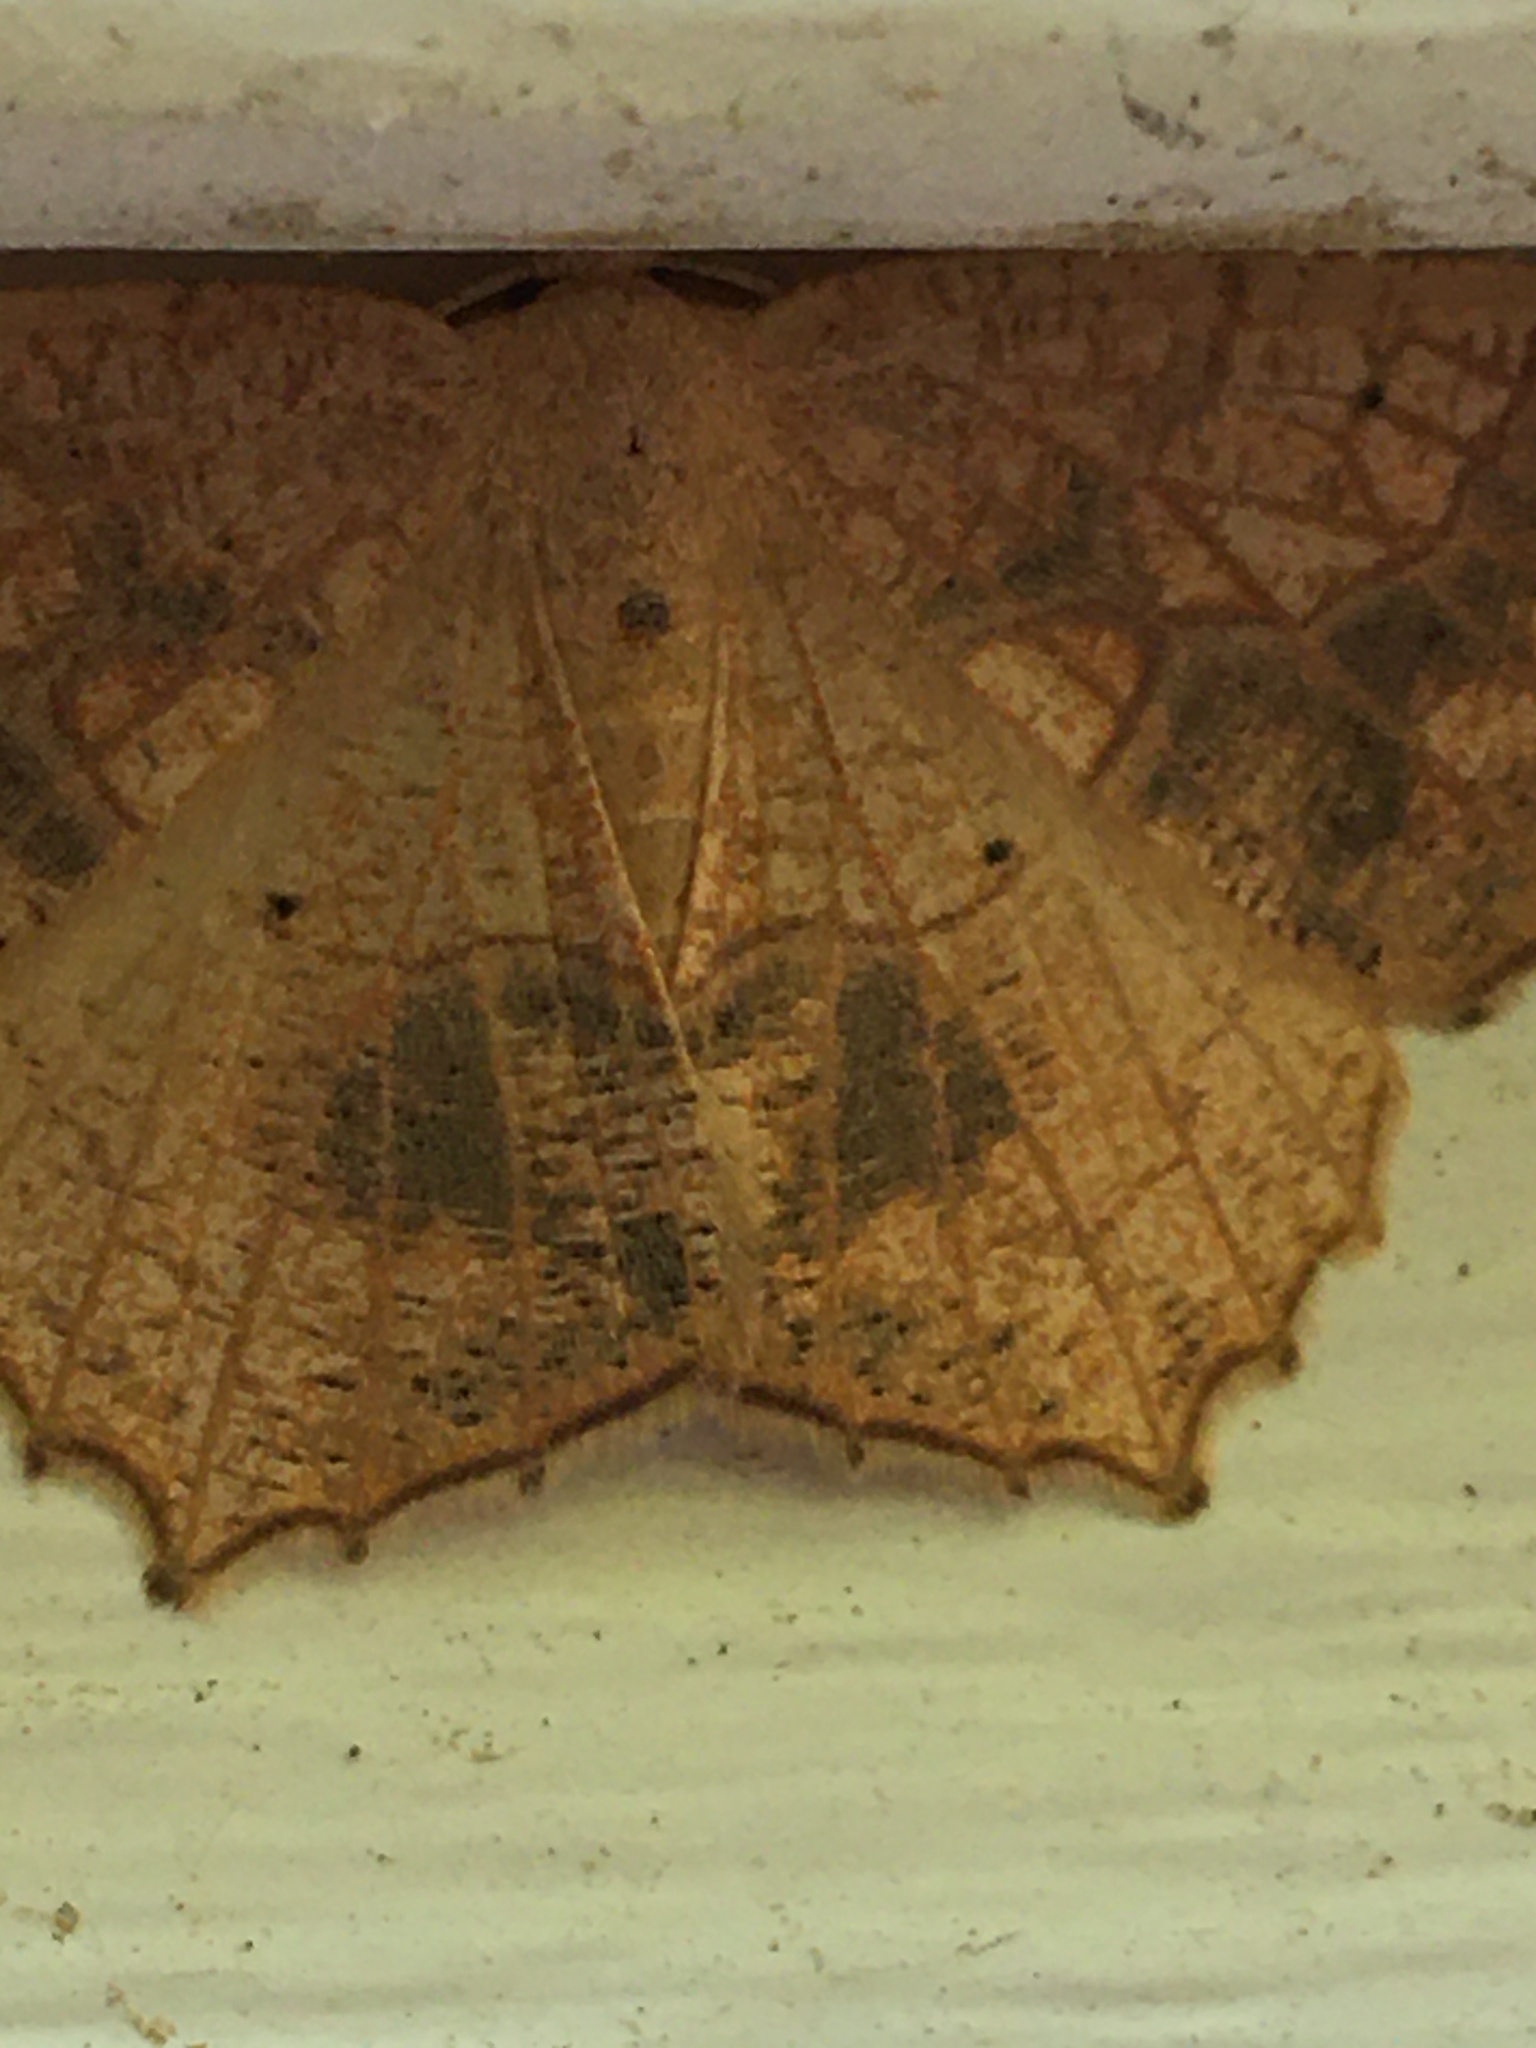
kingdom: Animalia
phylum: Arthropoda
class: Insecta
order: Lepidoptera
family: Geometridae
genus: Besma
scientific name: Besma quercivoraria
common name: Oak besma
